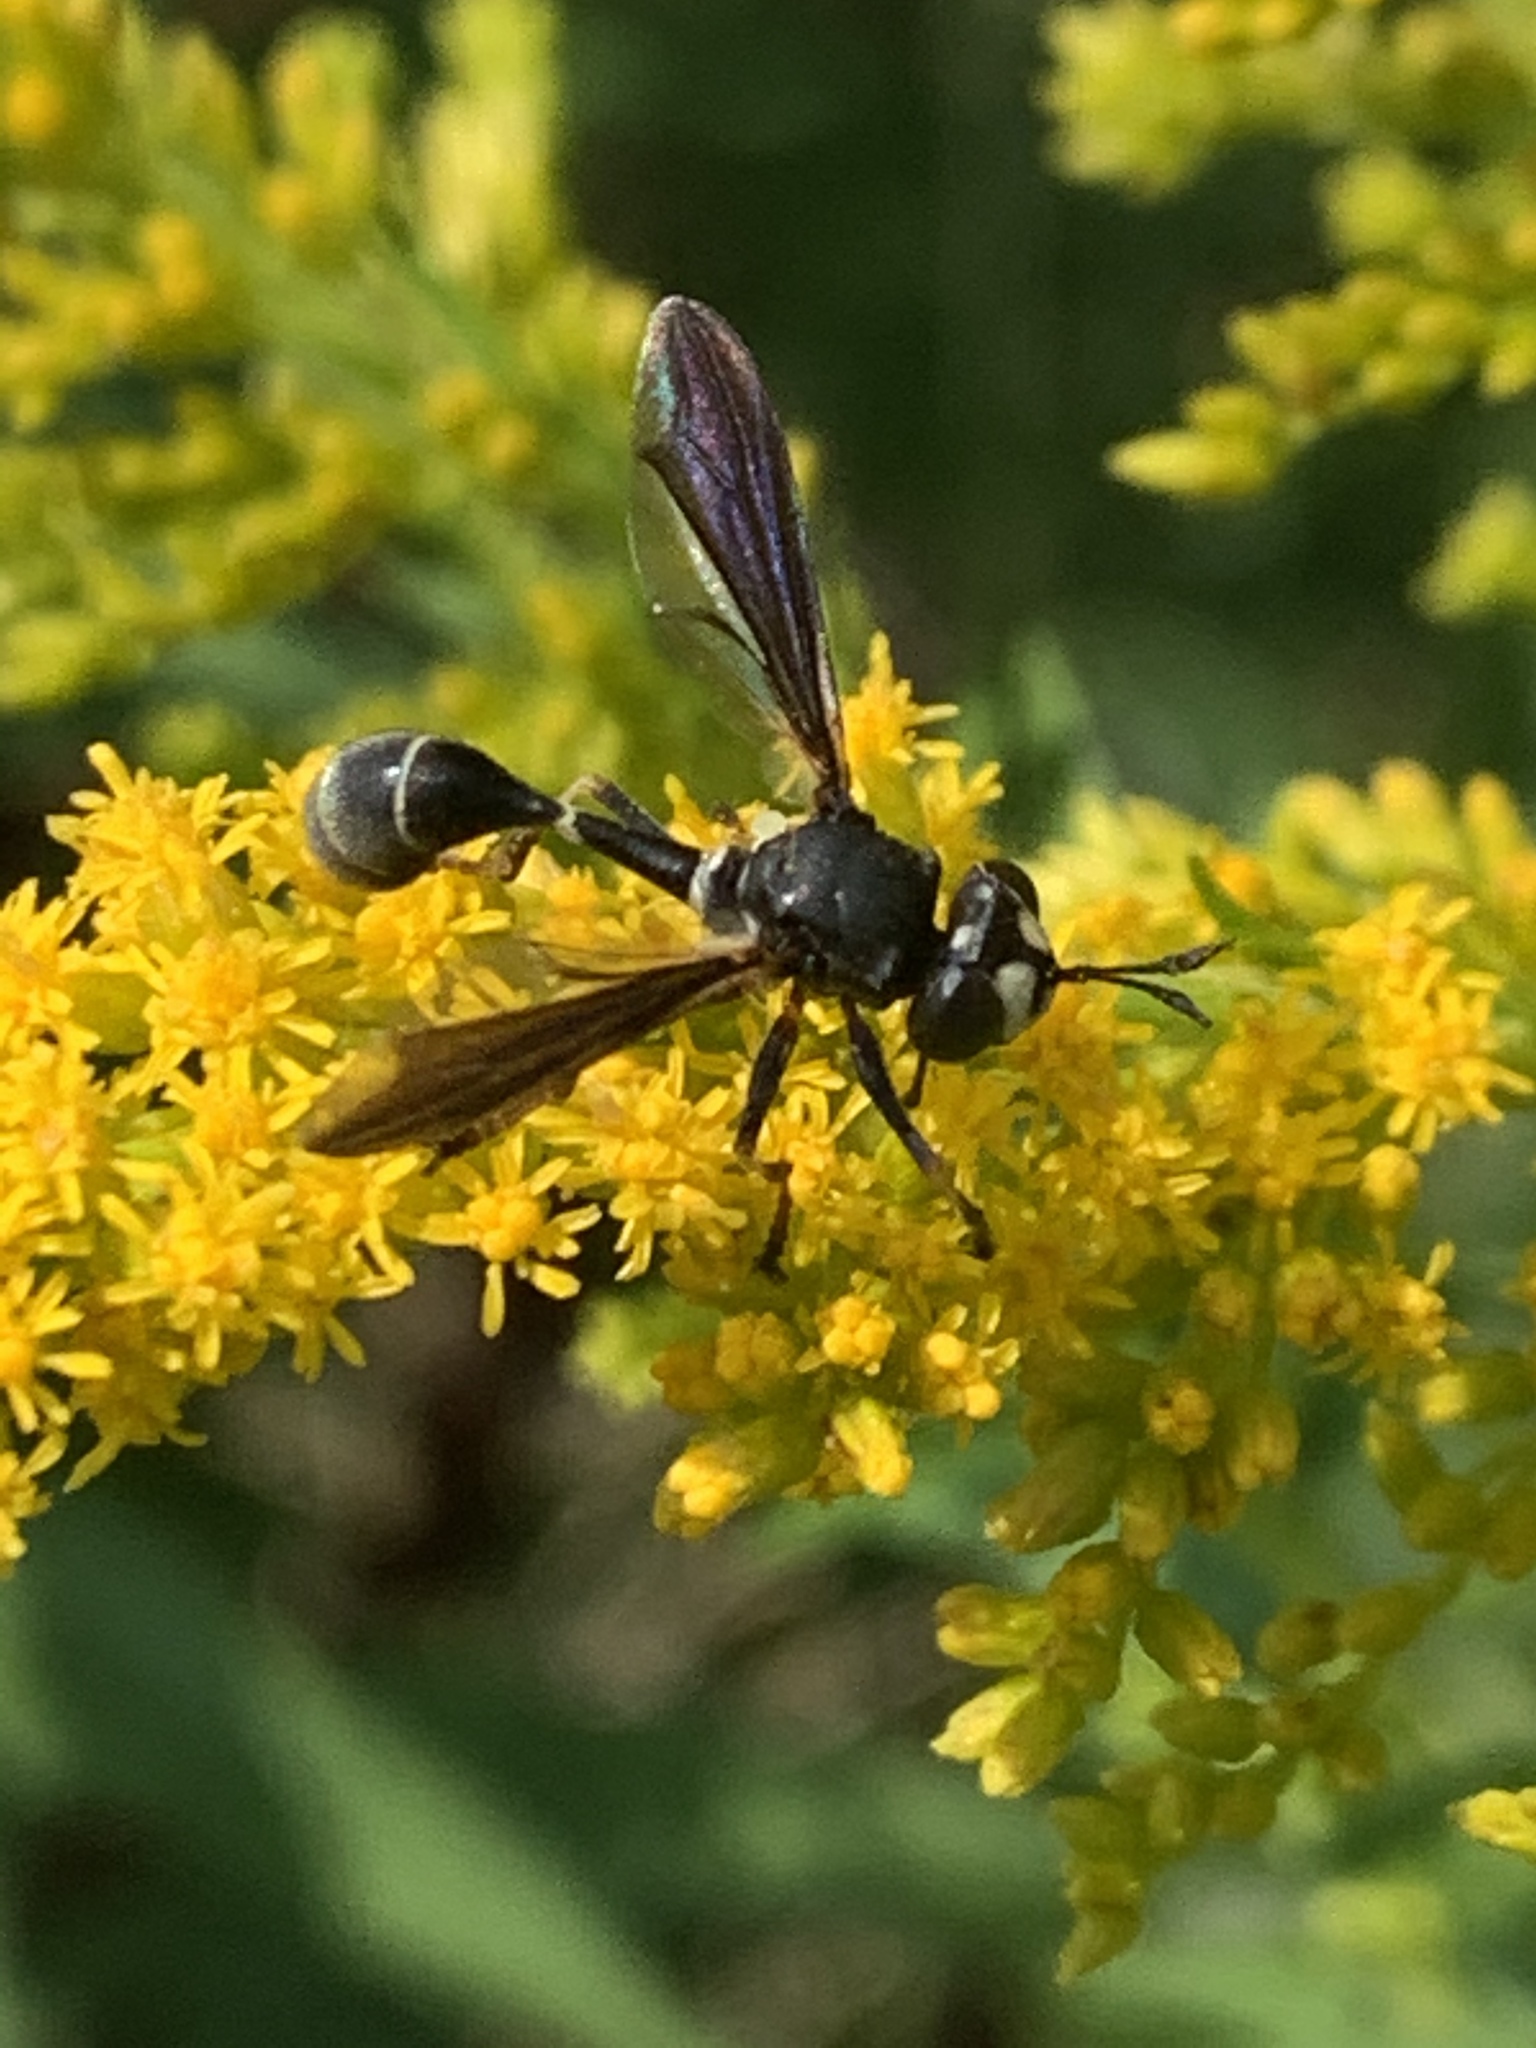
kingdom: Animalia
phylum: Arthropoda
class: Insecta
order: Diptera
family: Conopidae
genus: Physocephala
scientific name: Physocephala tibialis
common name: Common eastern physocephala
